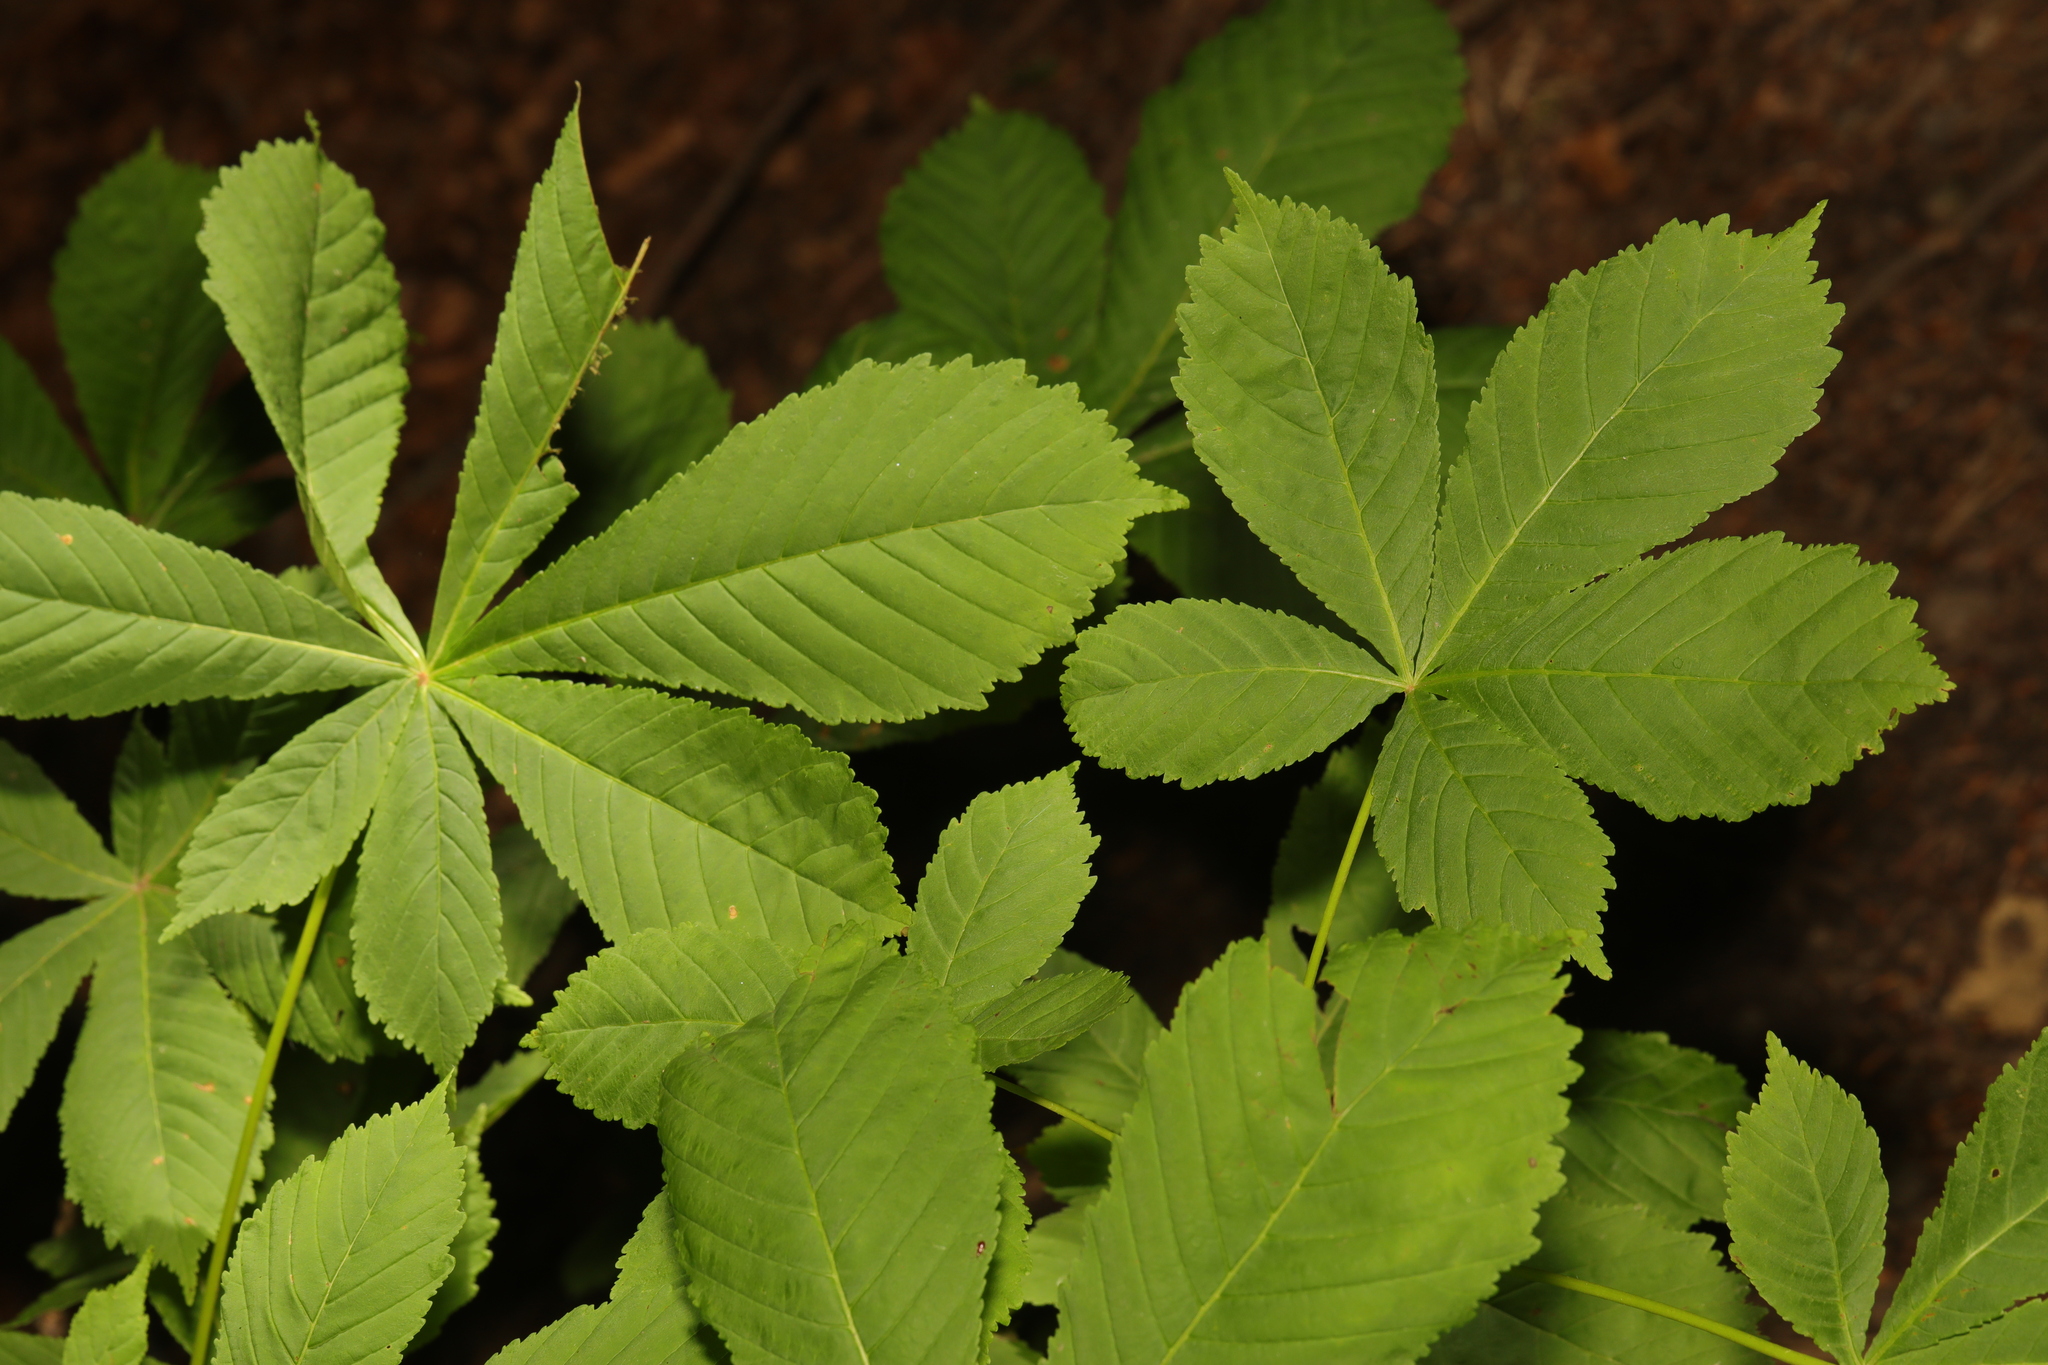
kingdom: Plantae
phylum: Tracheophyta
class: Magnoliopsida
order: Sapindales
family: Sapindaceae
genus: Aesculus
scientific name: Aesculus hippocastanum
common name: Horse-chestnut
